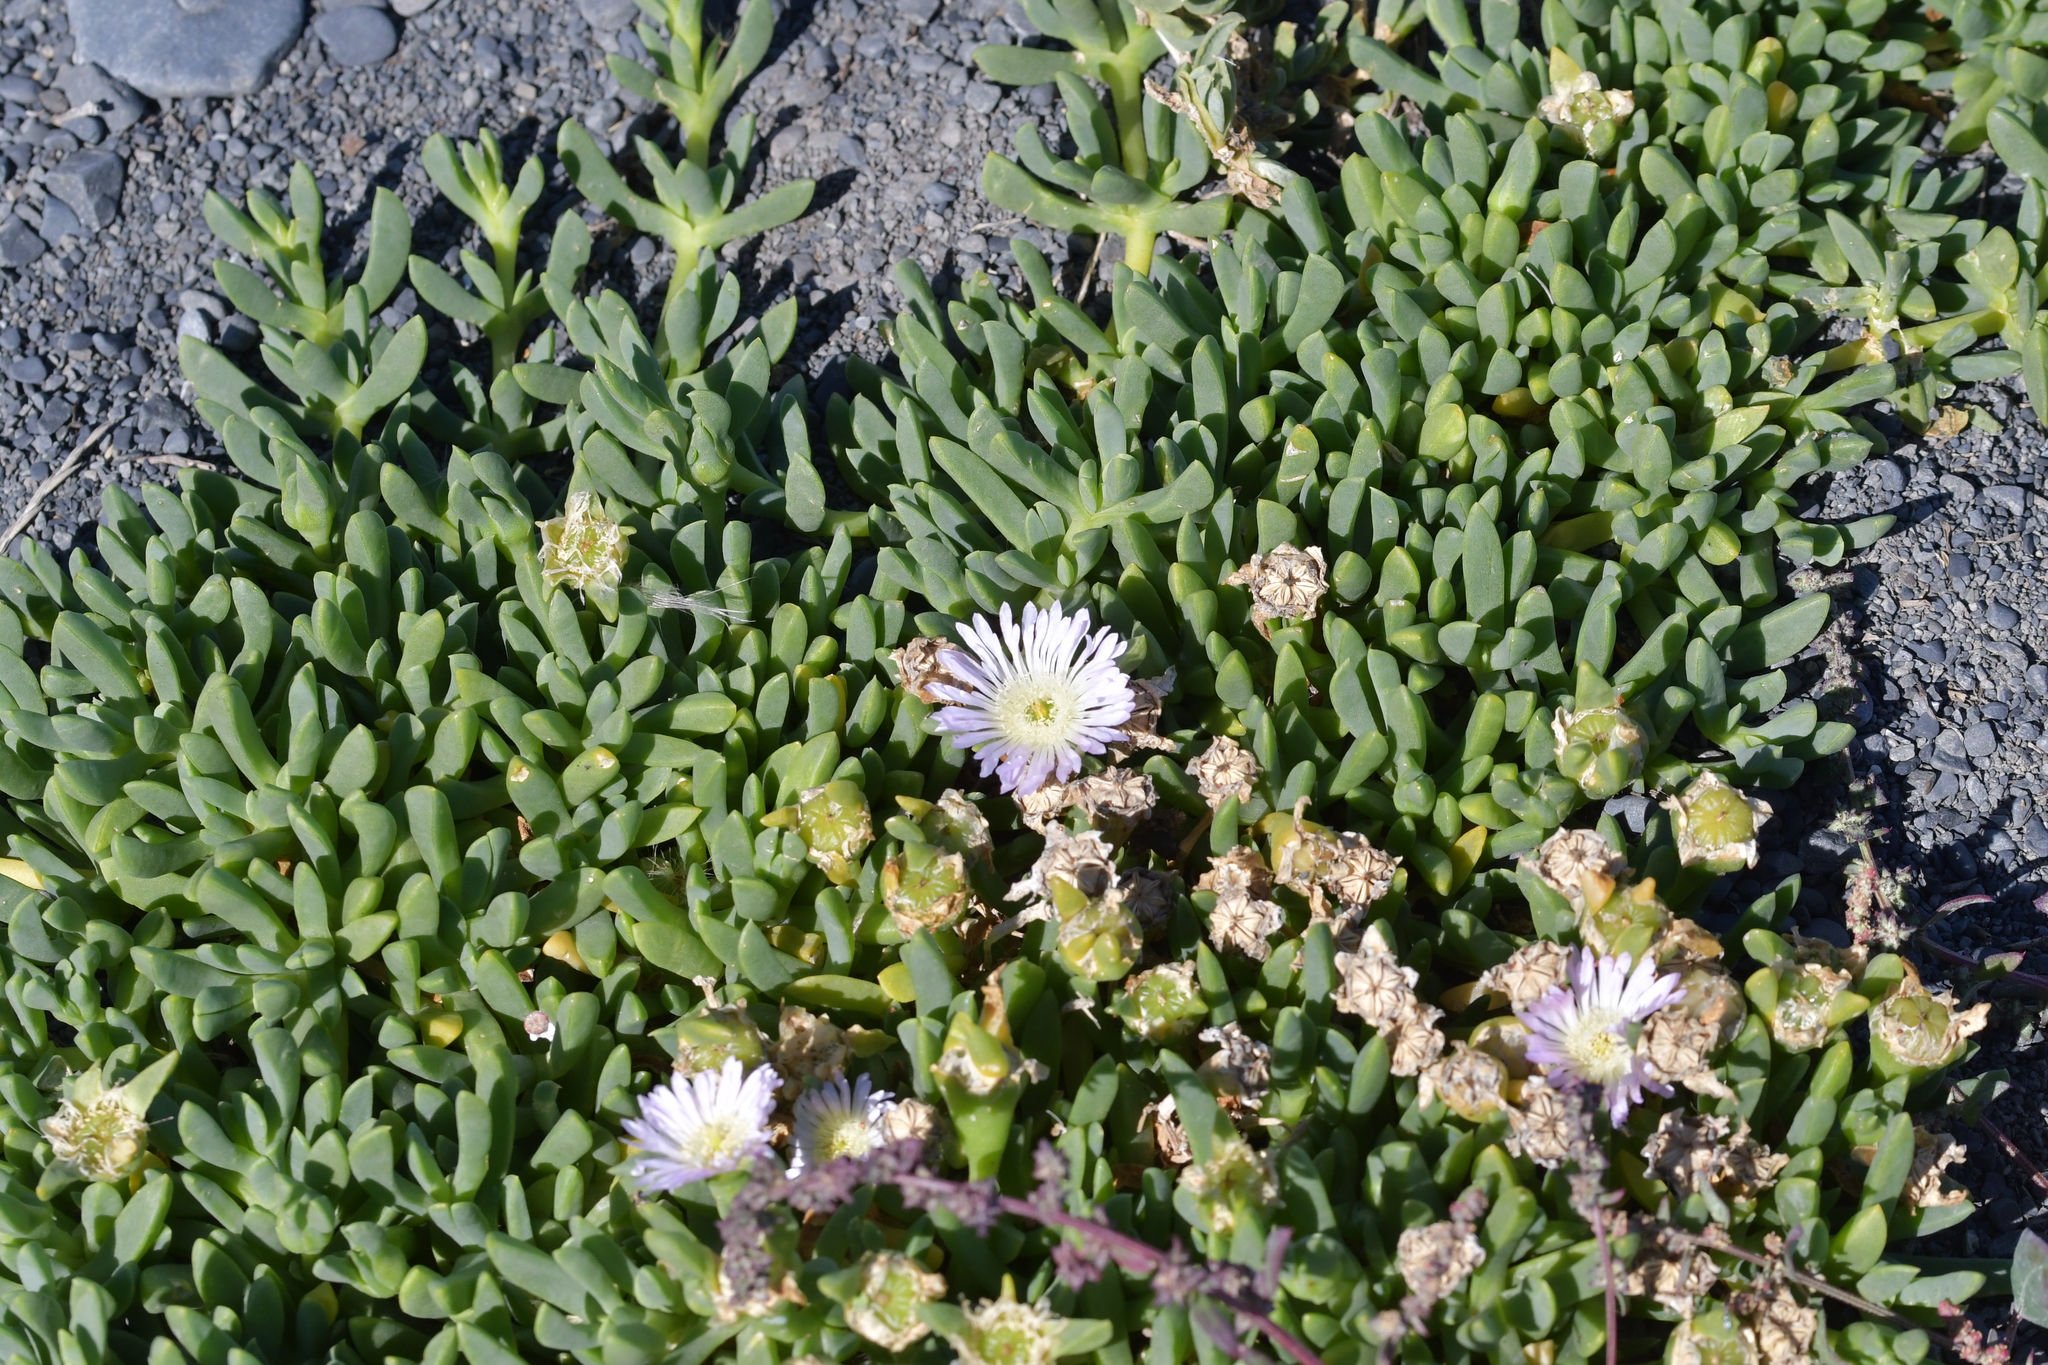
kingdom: Plantae
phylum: Tracheophyta
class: Magnoliopsida
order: Caryophyllales
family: Aizoaceae
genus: Disphyma
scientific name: Disphyma australe
